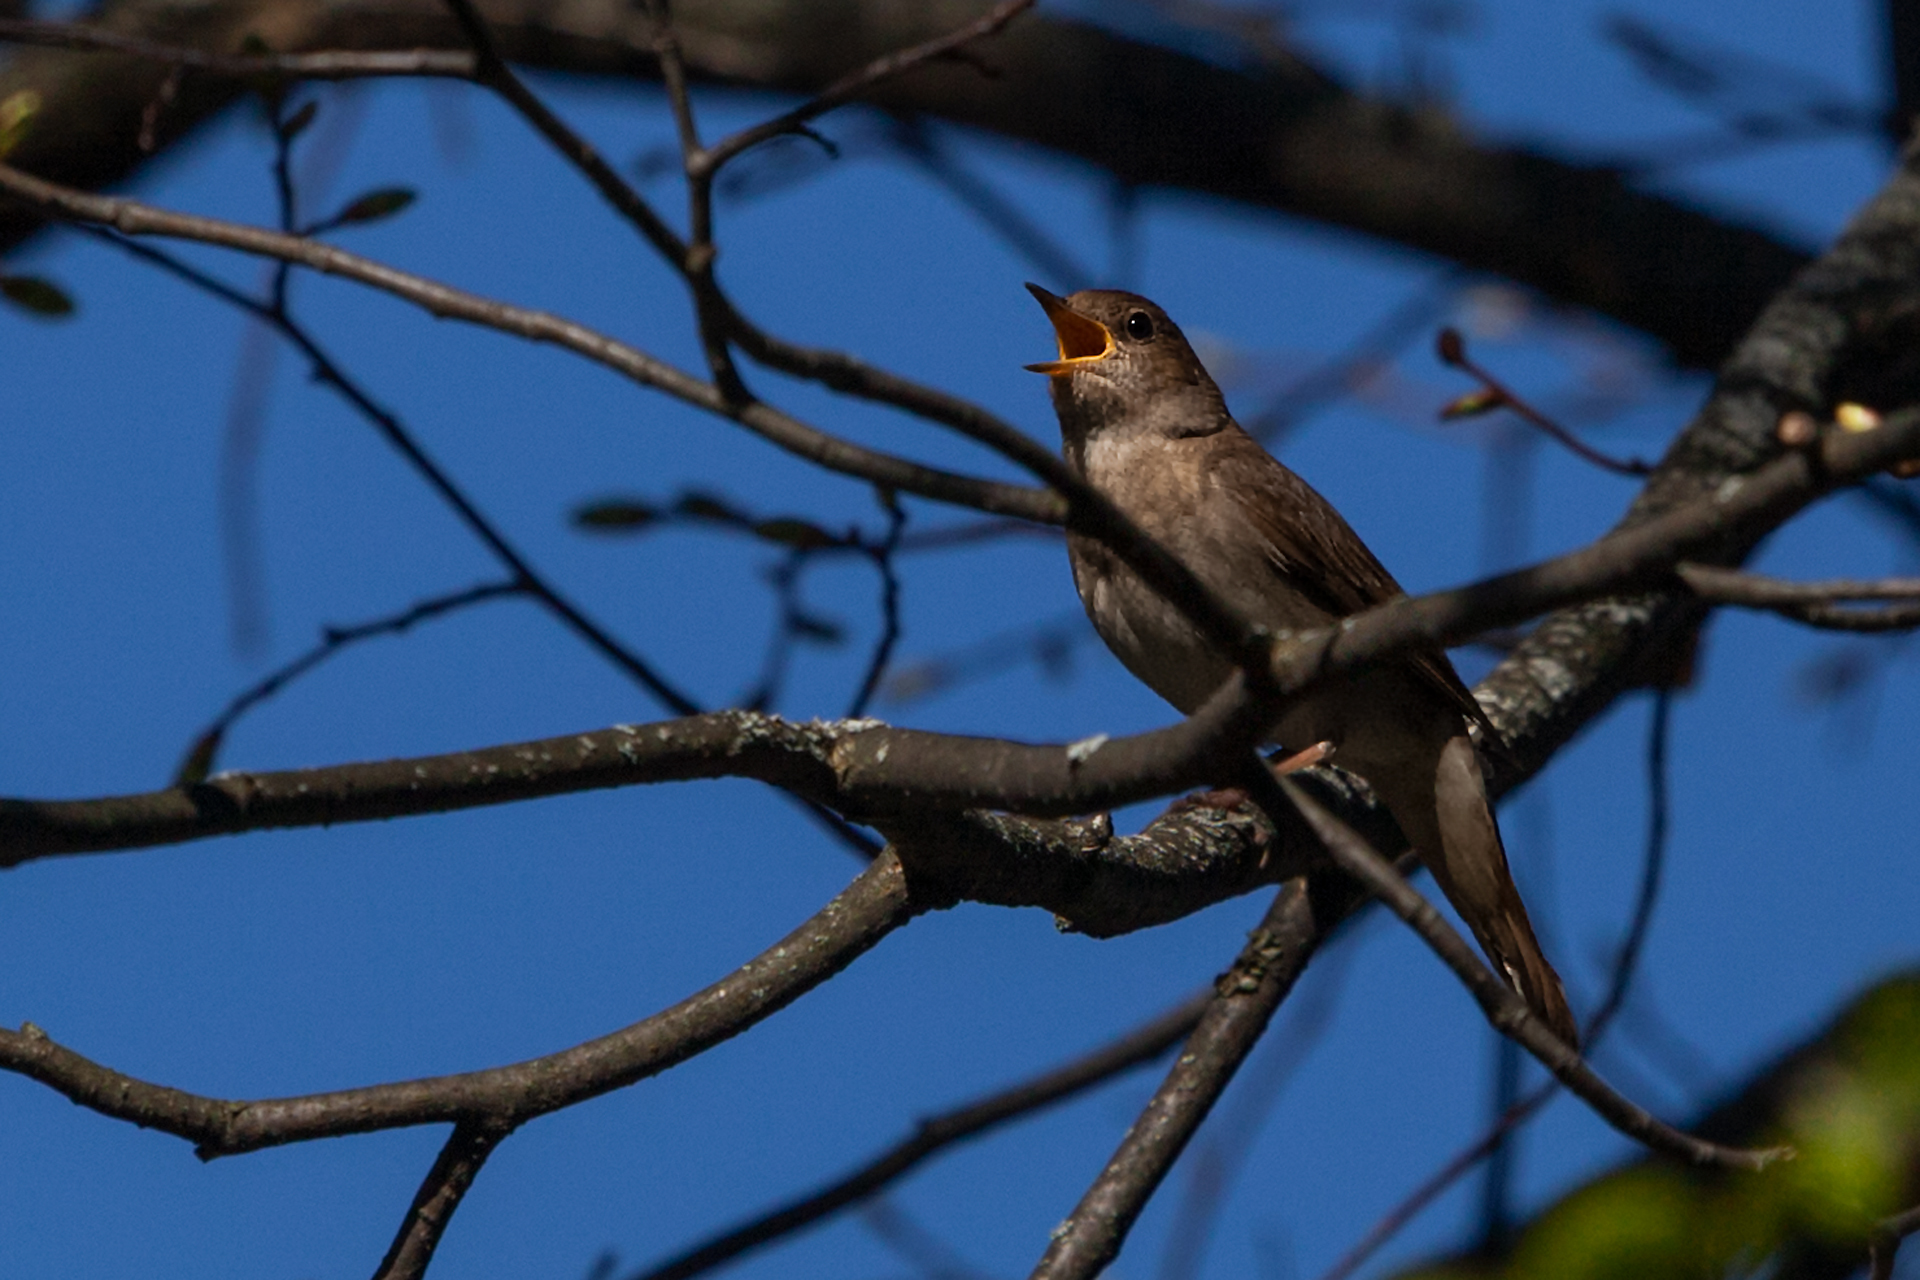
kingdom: Animalia
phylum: Chordata
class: Aves
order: Passeriformes
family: Muscicapidae
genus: Luscinia
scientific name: Luscinia luscinia
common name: Thrush nightingale
